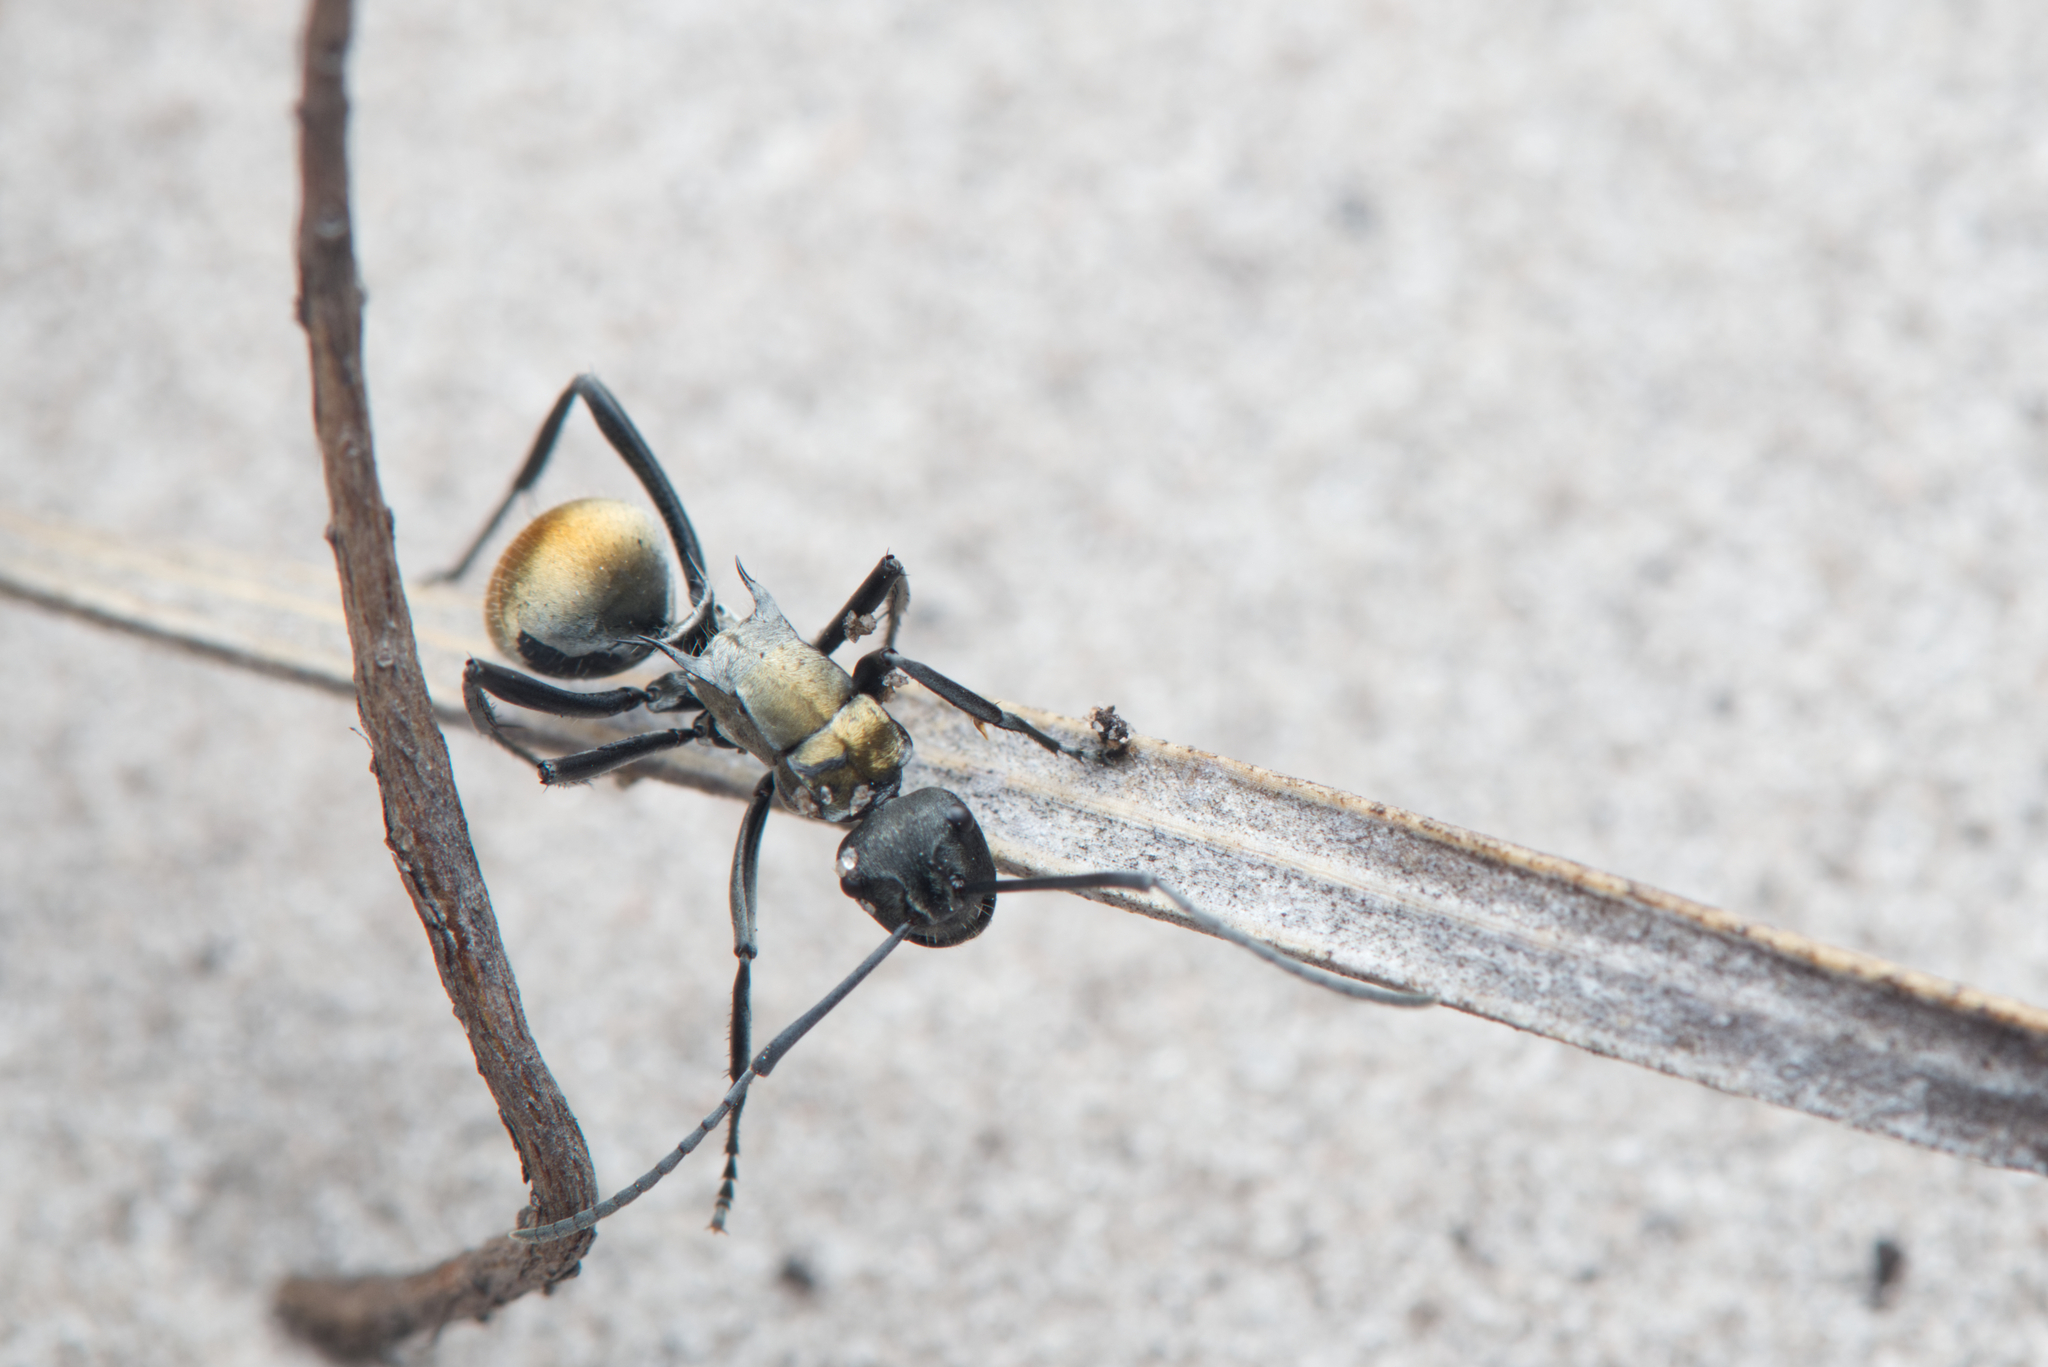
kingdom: Animalia
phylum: Arthropoda
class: Insecta
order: Hymenoptera
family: Formicidae
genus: Polyrhachis
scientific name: Polyrhachis ammon
